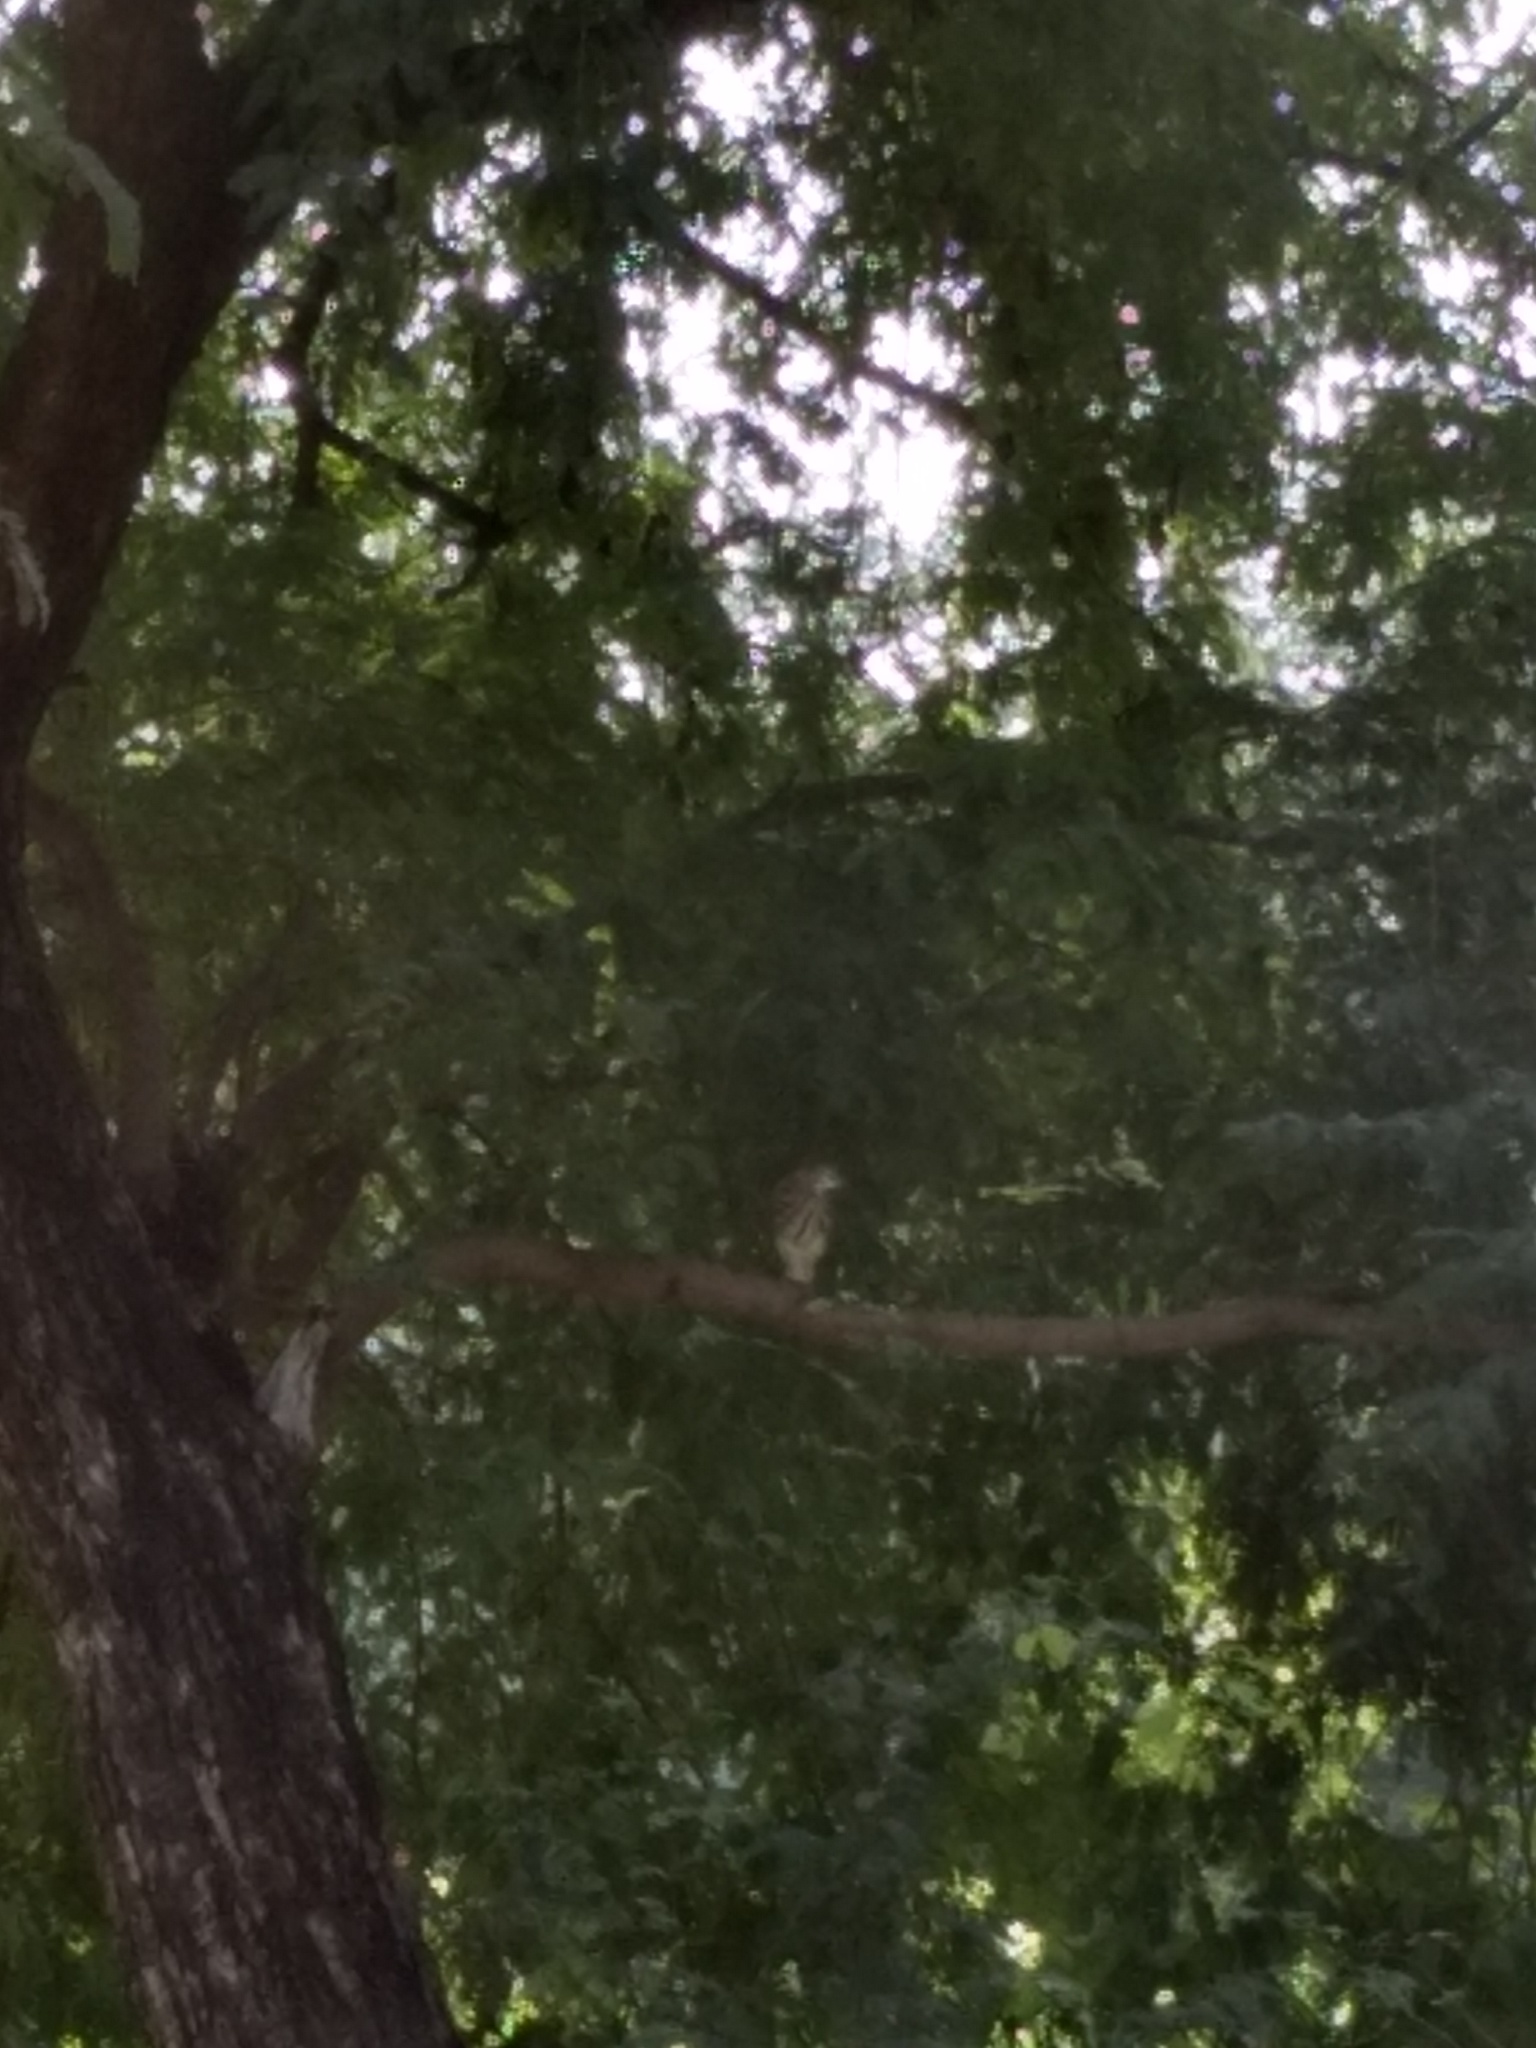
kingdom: Animalia
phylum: Chordata
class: Aves
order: Pelecaniformes
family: Ardeidae
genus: Ardeola
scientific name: Ardeola grayii
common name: Indian pond heron
